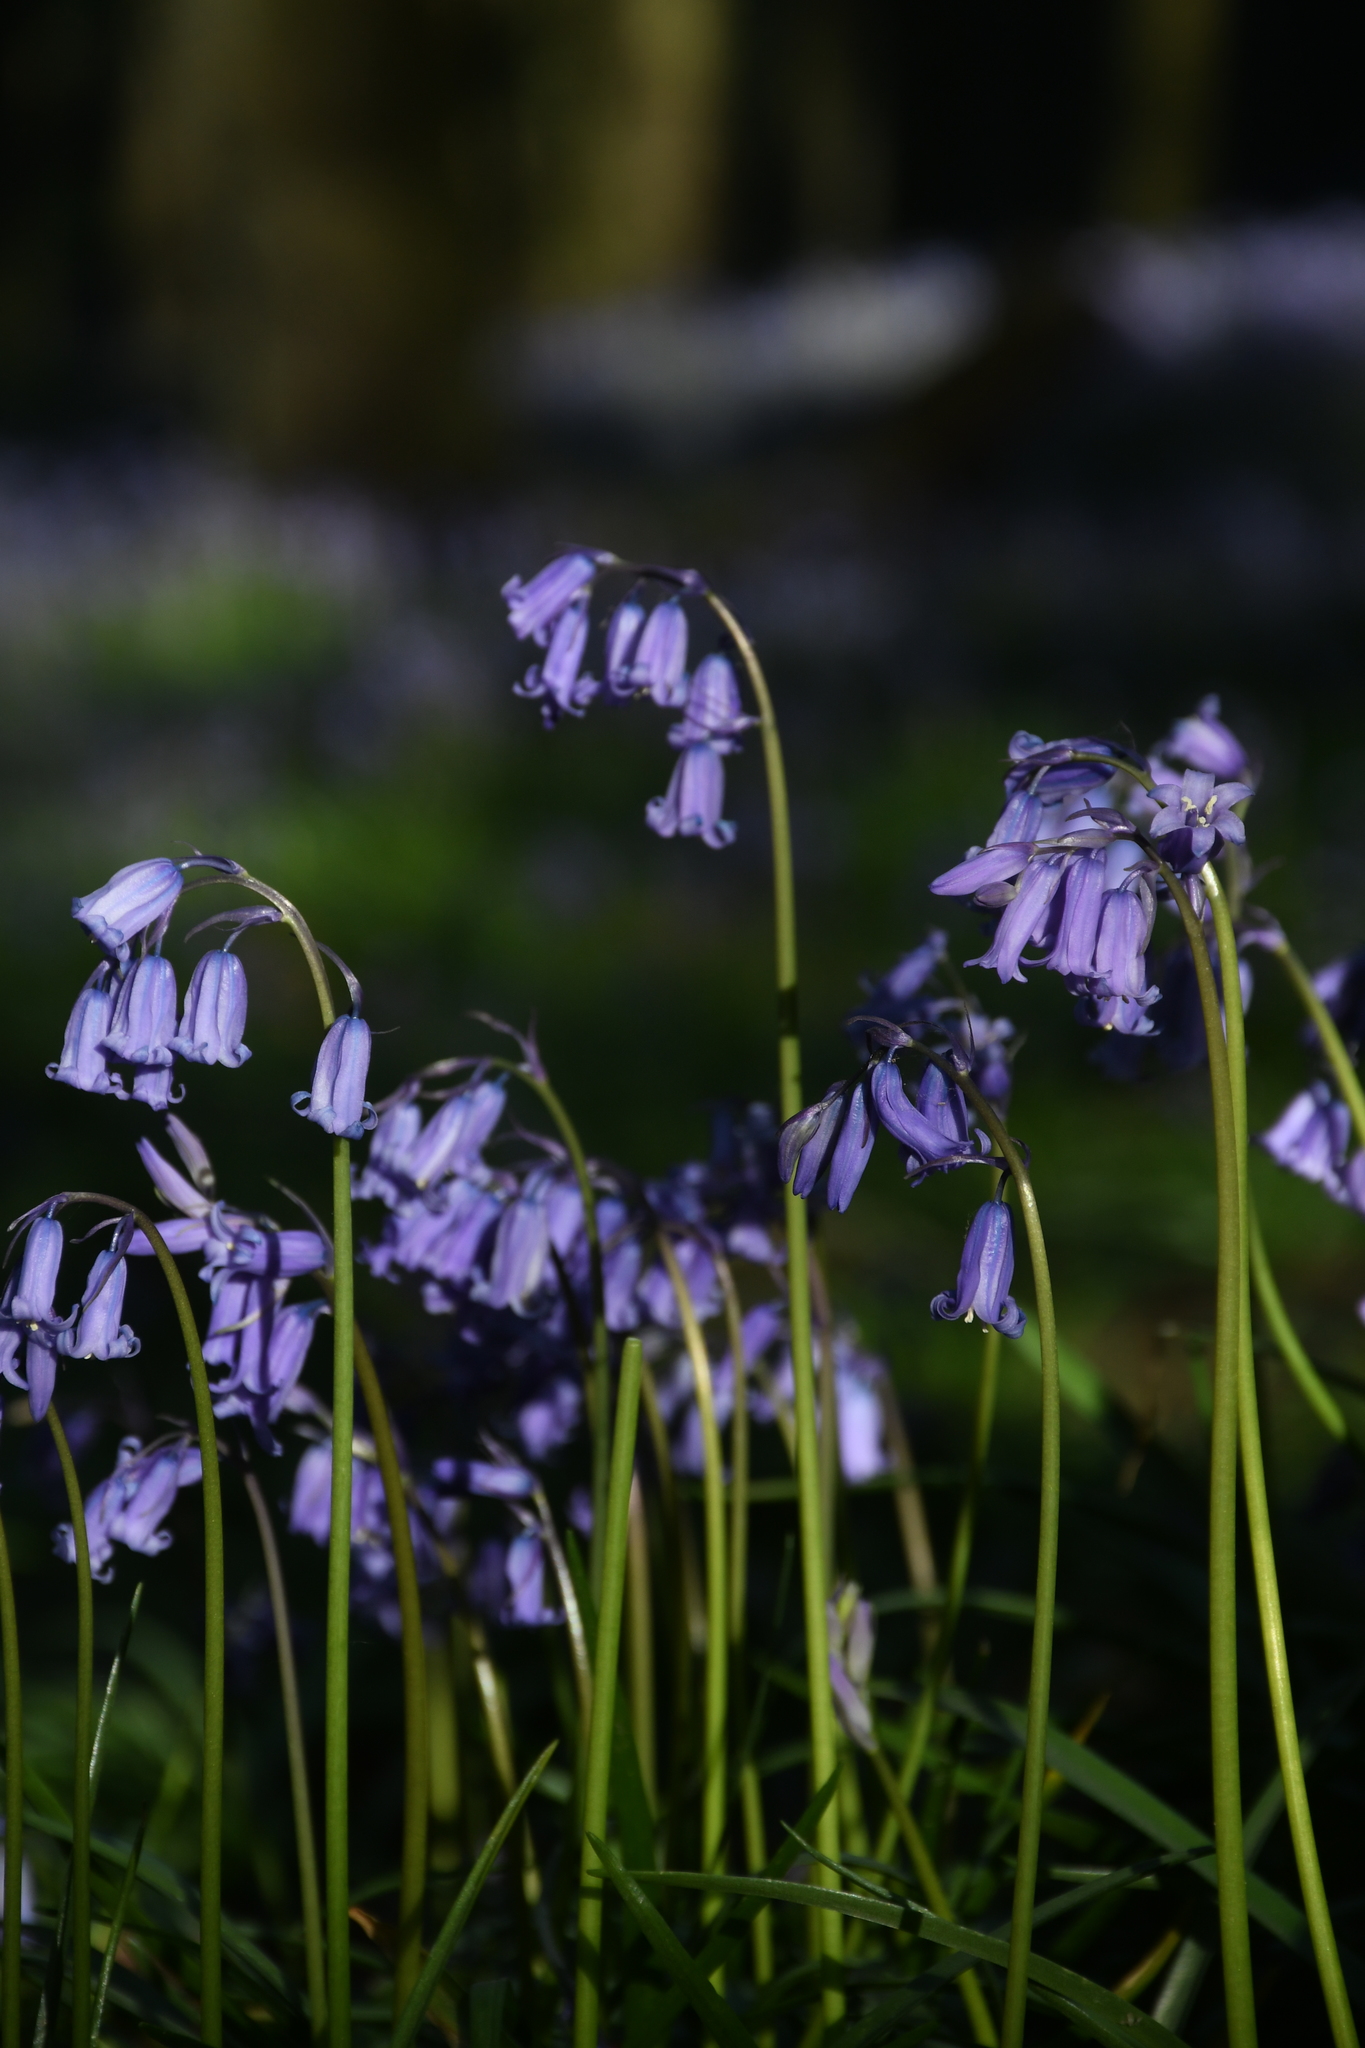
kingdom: Plantae
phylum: Tracheophyta
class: Liliopsida
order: Asparagales
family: Asparagaceae
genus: Hyacinthoides
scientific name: Hyacinthoides non-scripta
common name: Bluebell
